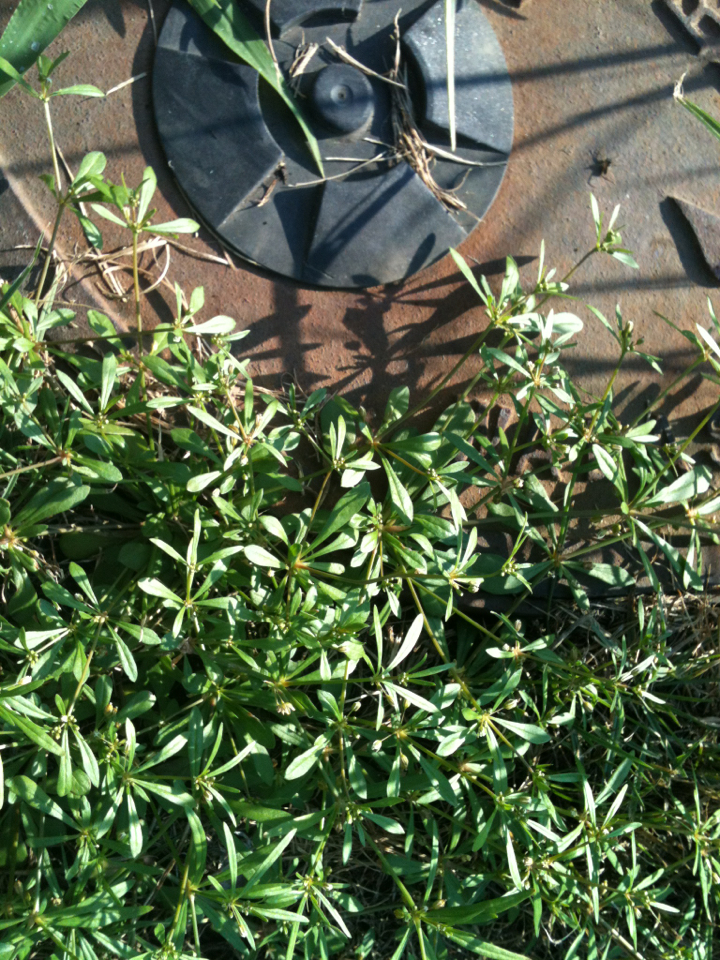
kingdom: Plantae
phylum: Tracheophyta
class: Magnoliopsida
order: Caryophyllales
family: Molluginaceae
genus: Mollugo
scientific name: Mollugo verticillata
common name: Green carpetweed
